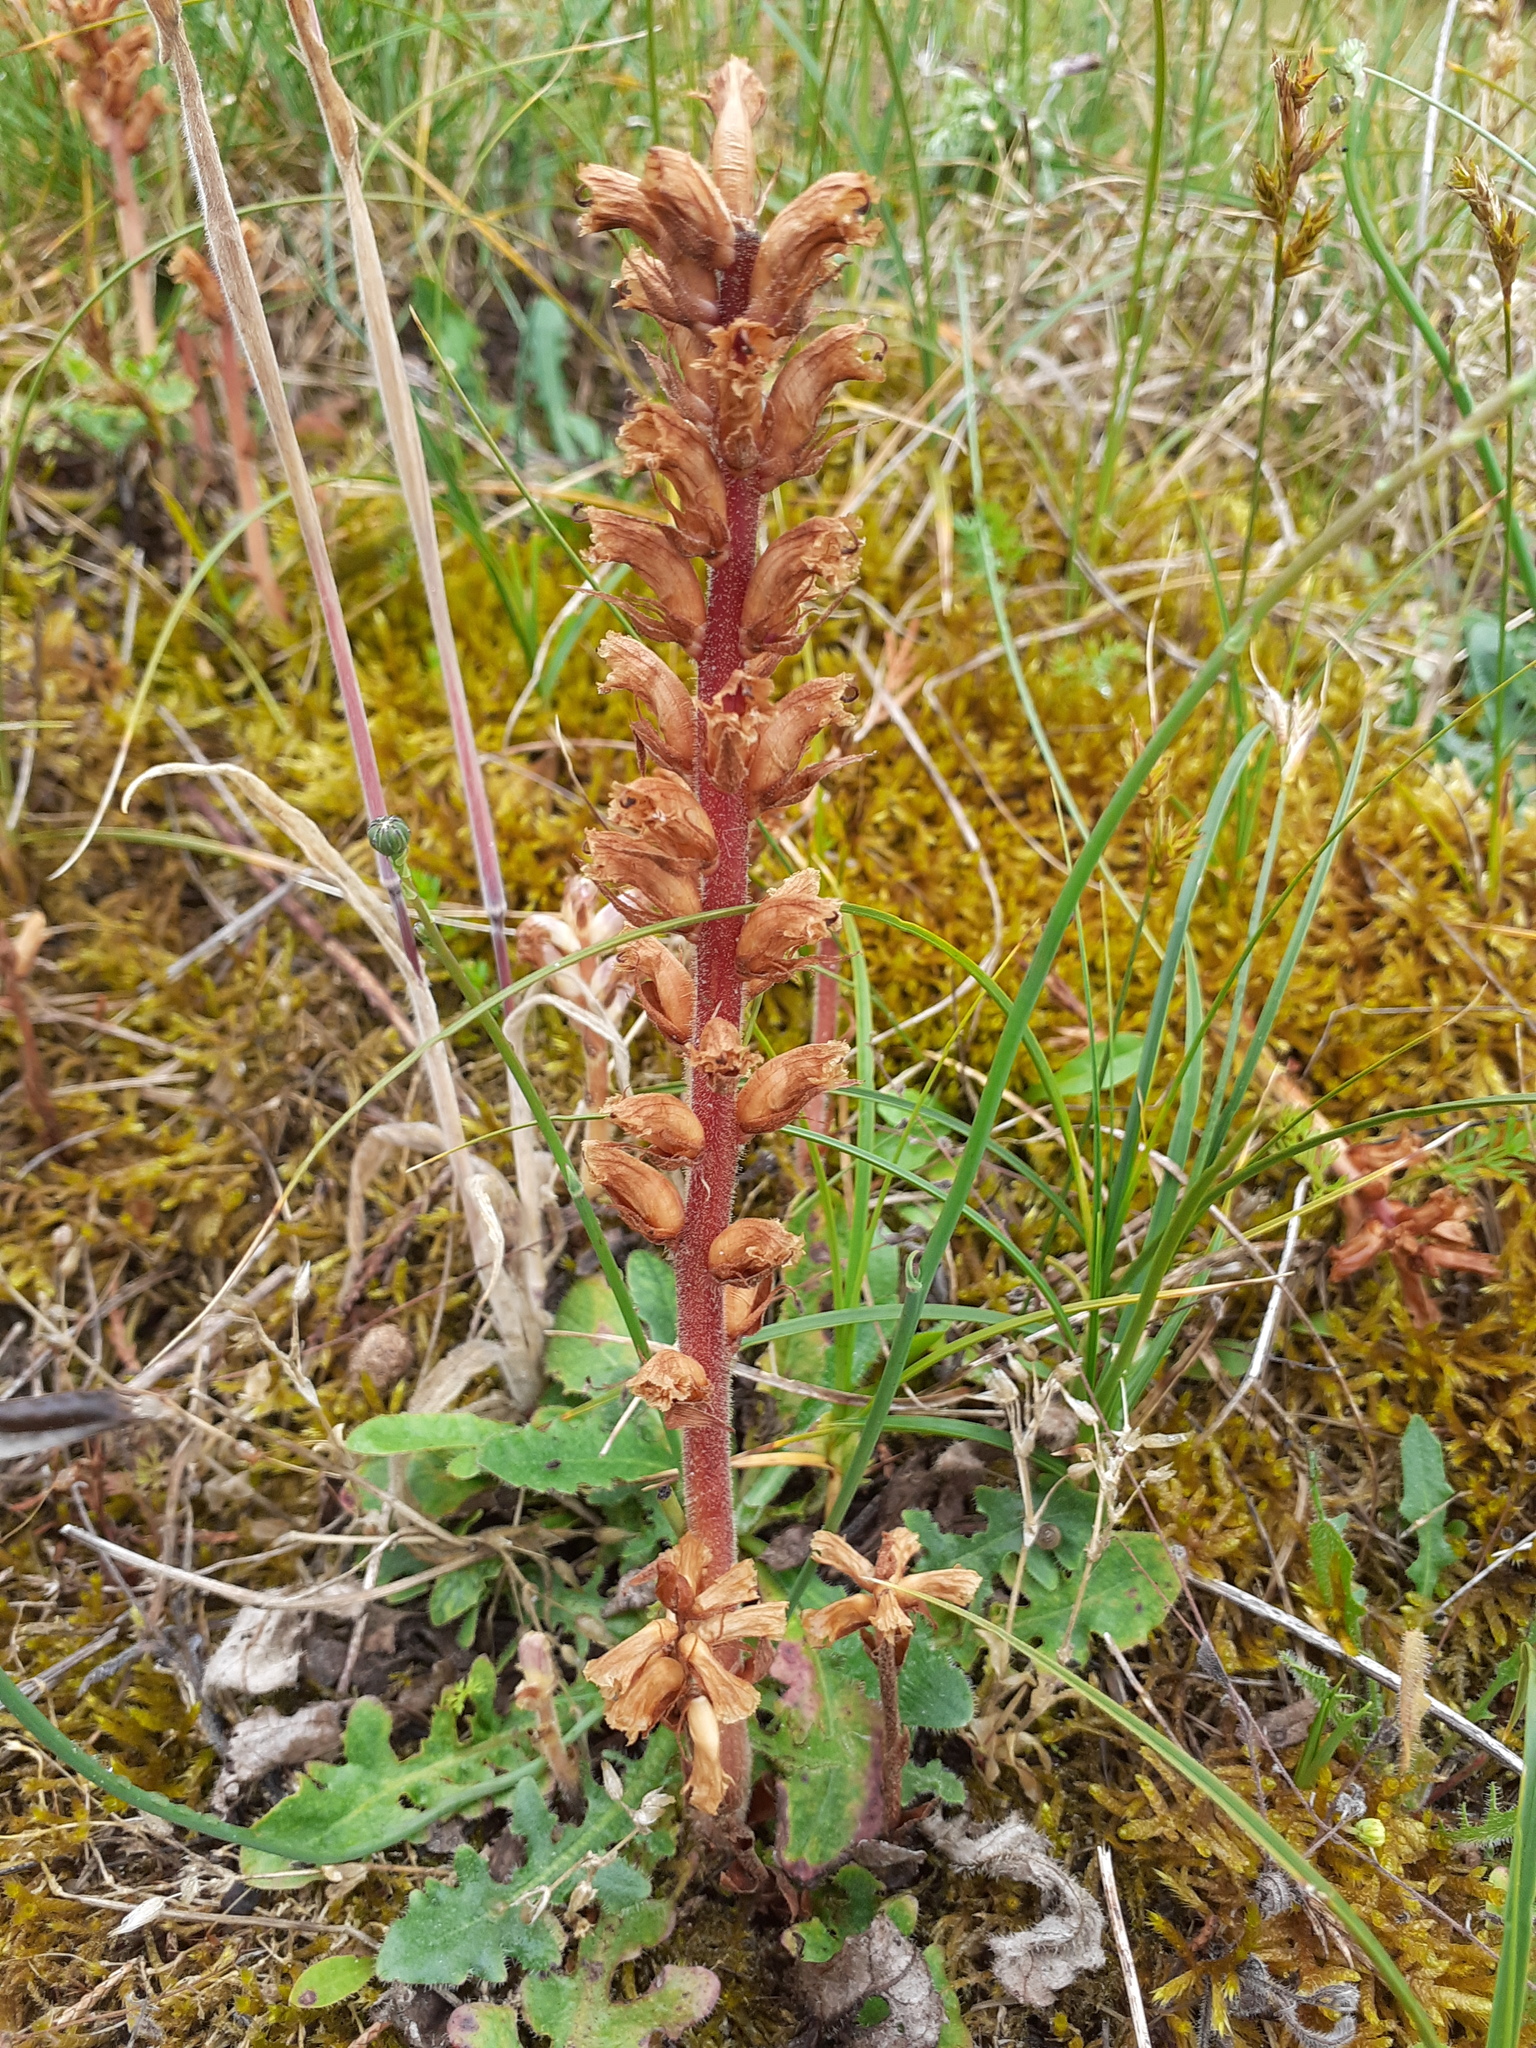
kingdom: Plantae
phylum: Tracheophyta
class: Magnoliopsida
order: Lamiales
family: Orobanchaceae
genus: Orobanche
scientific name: Orobanche minor
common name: Common broomrape
